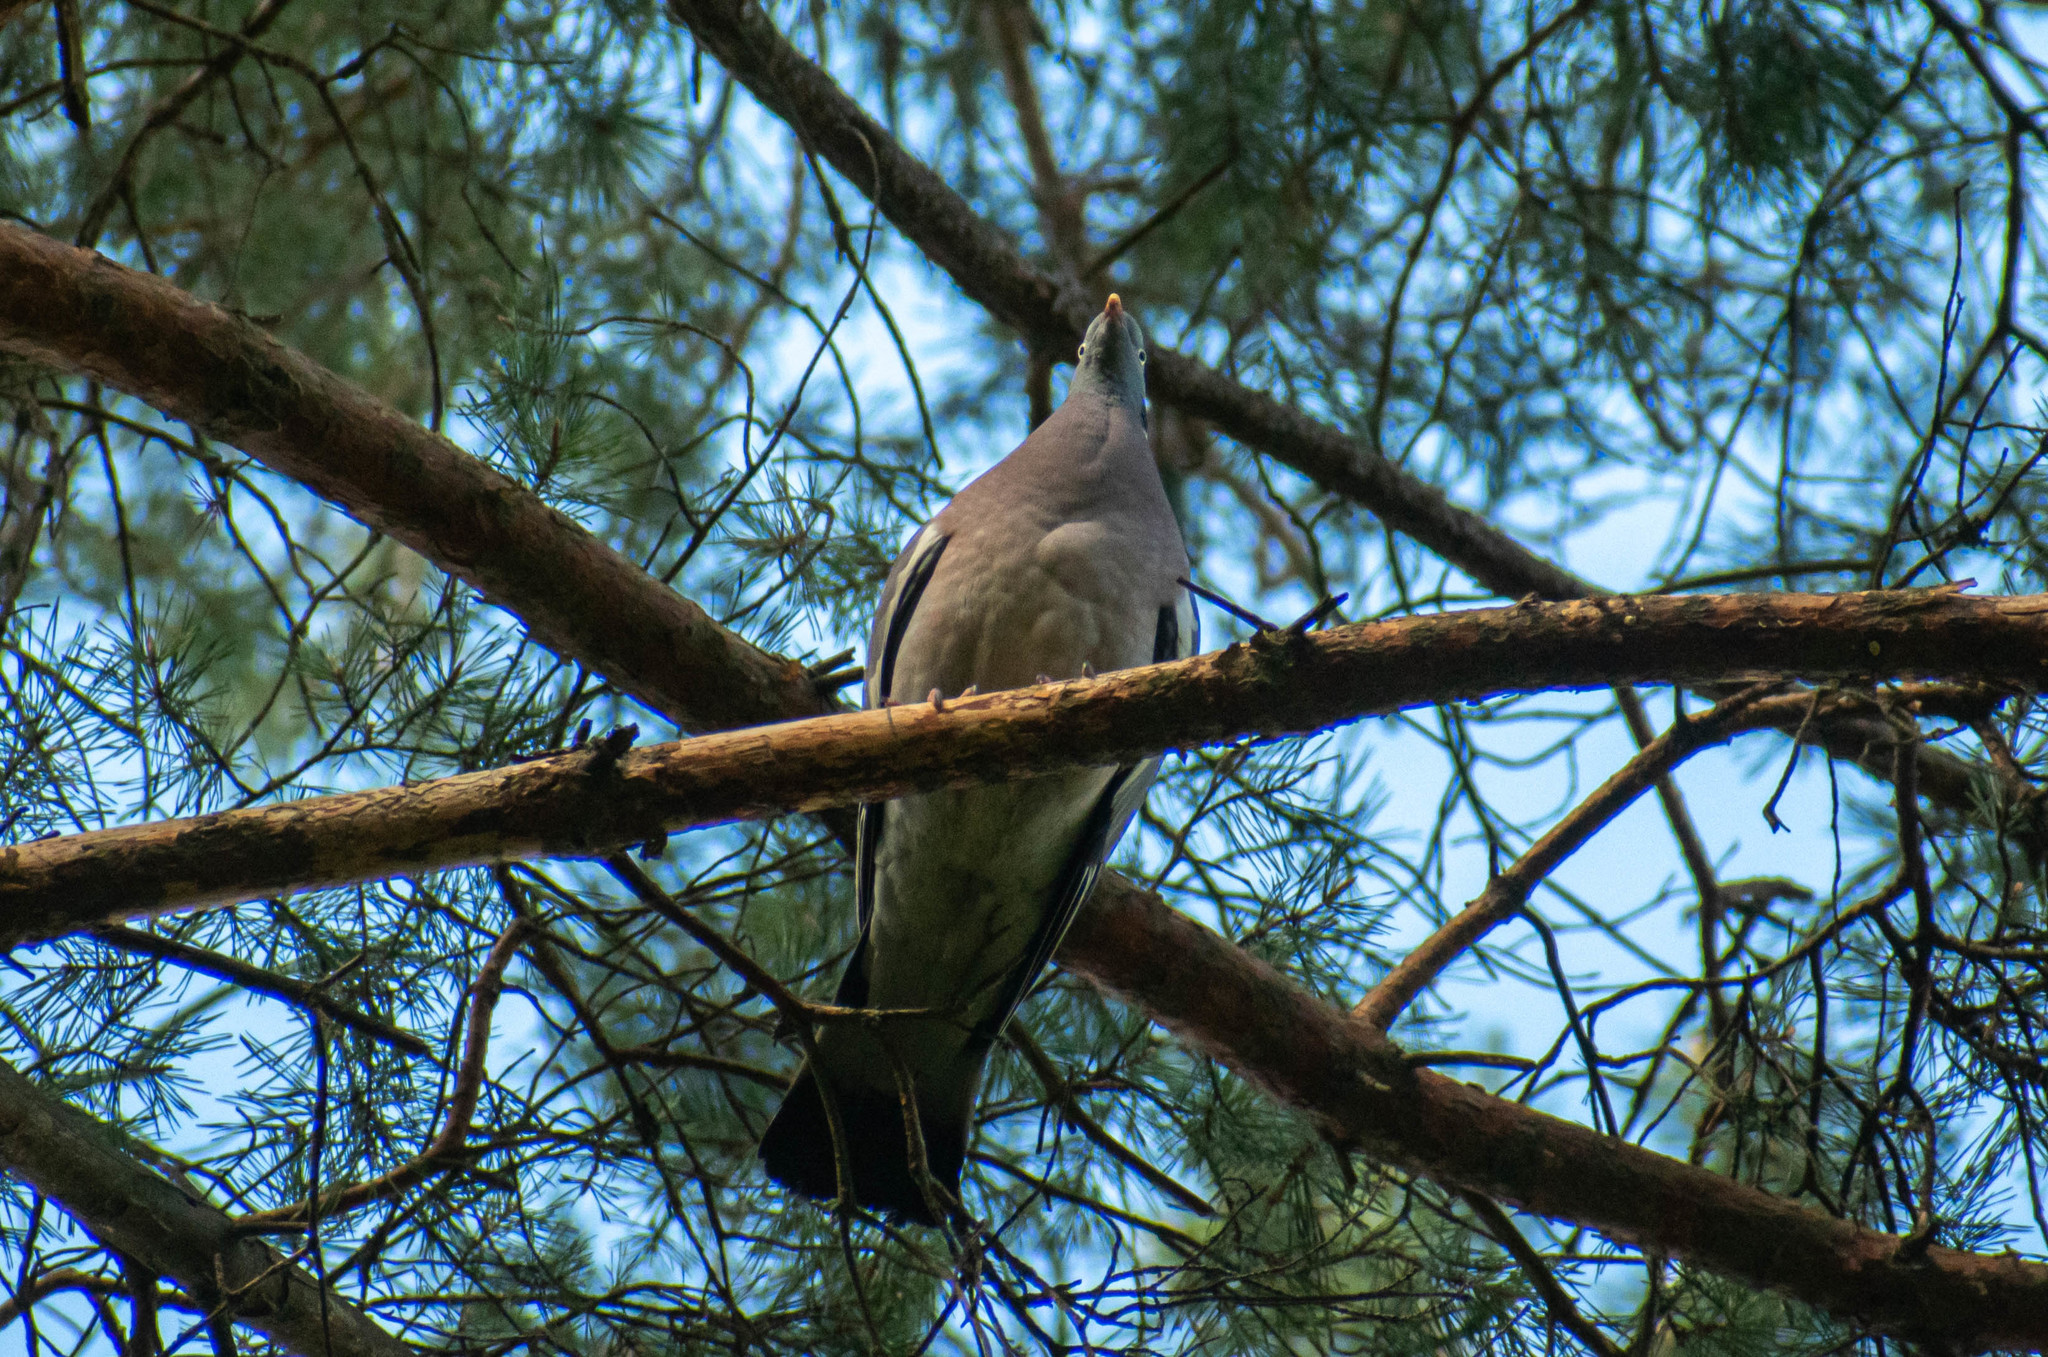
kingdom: Animalia
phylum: Chordata
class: Aves
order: Columbiformes
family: Columbidae
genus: Columba
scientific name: Columba palumbus
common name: Common wood pigeon
